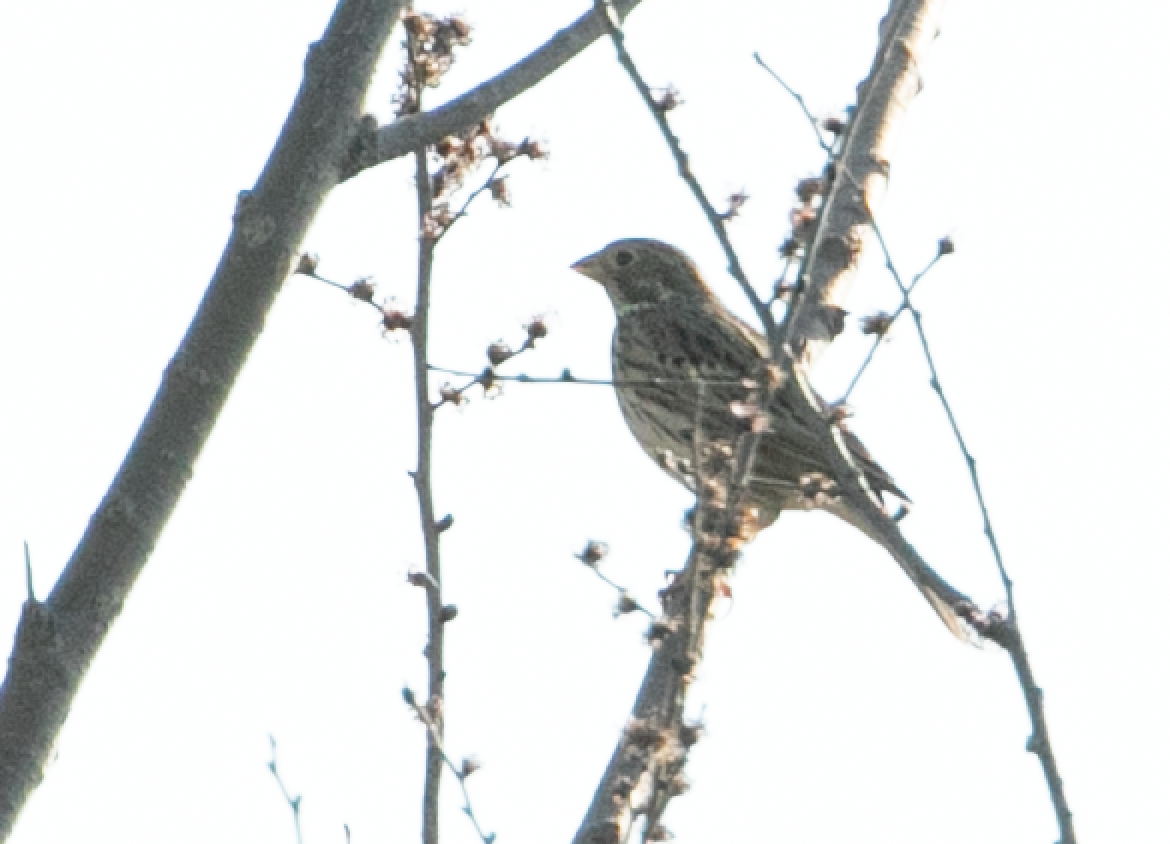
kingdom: Animalia
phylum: Chordata
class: Aves
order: Passeriformes
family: Emberizidae
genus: Emberiza
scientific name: Emberiza calandra
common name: Corn bunting
